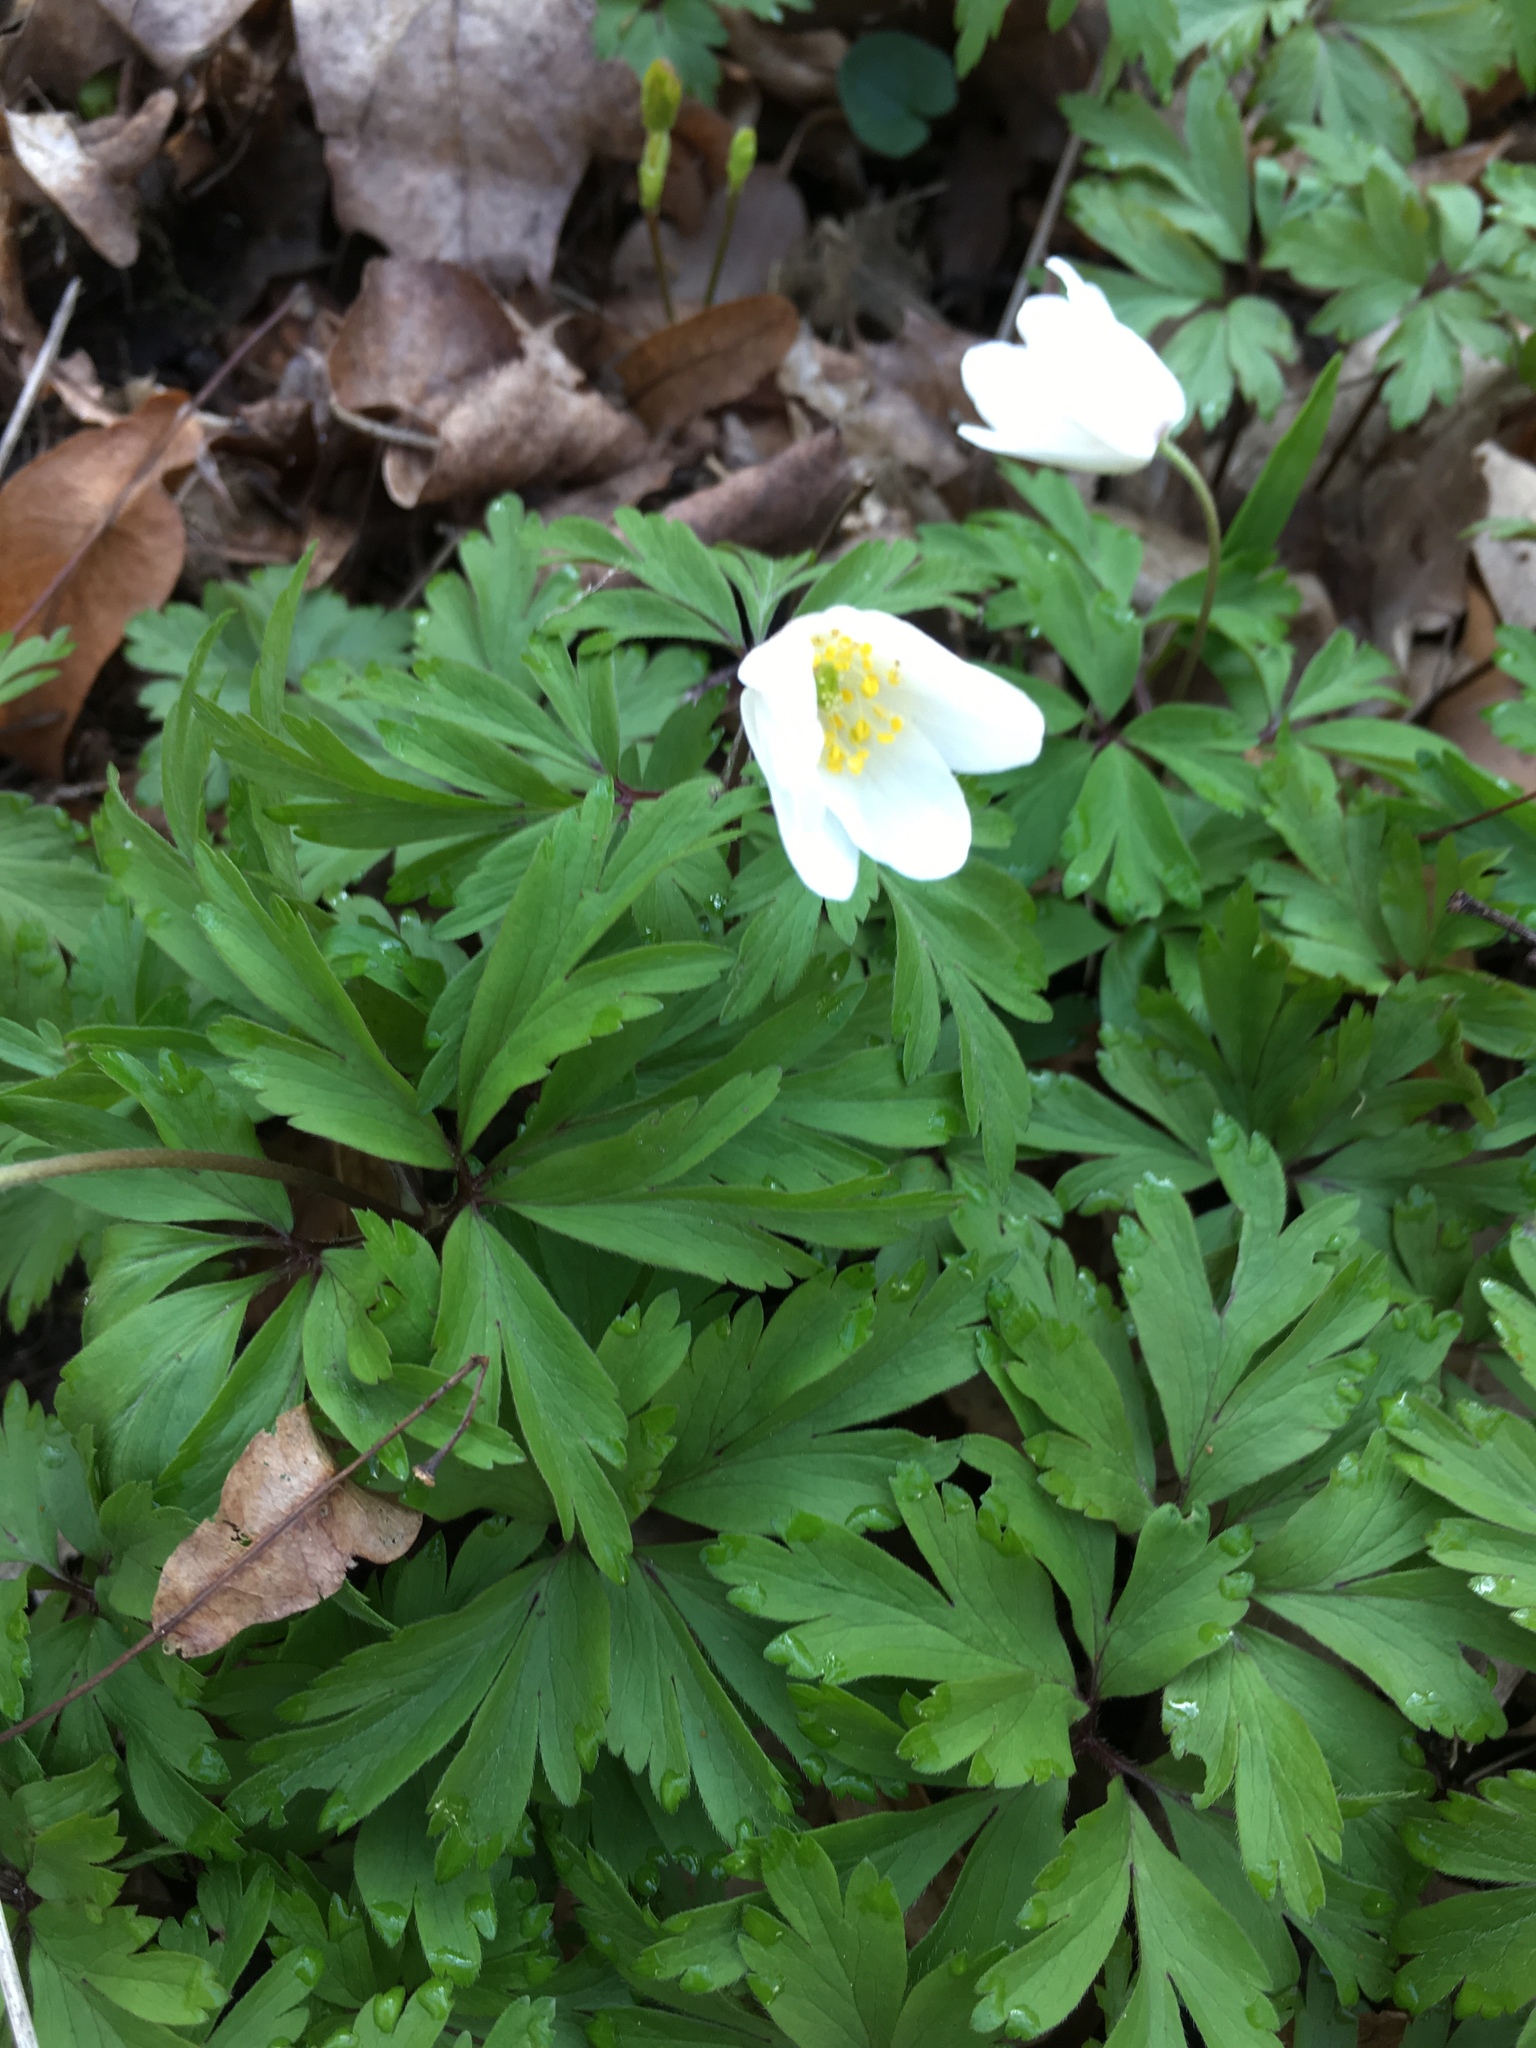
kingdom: Plantae
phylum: Tracheophyta
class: Magnoliopsida
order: Ranunculales
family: Ranunculaceae
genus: Anemone
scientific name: Anemone nemorosa
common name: Wood anemone
